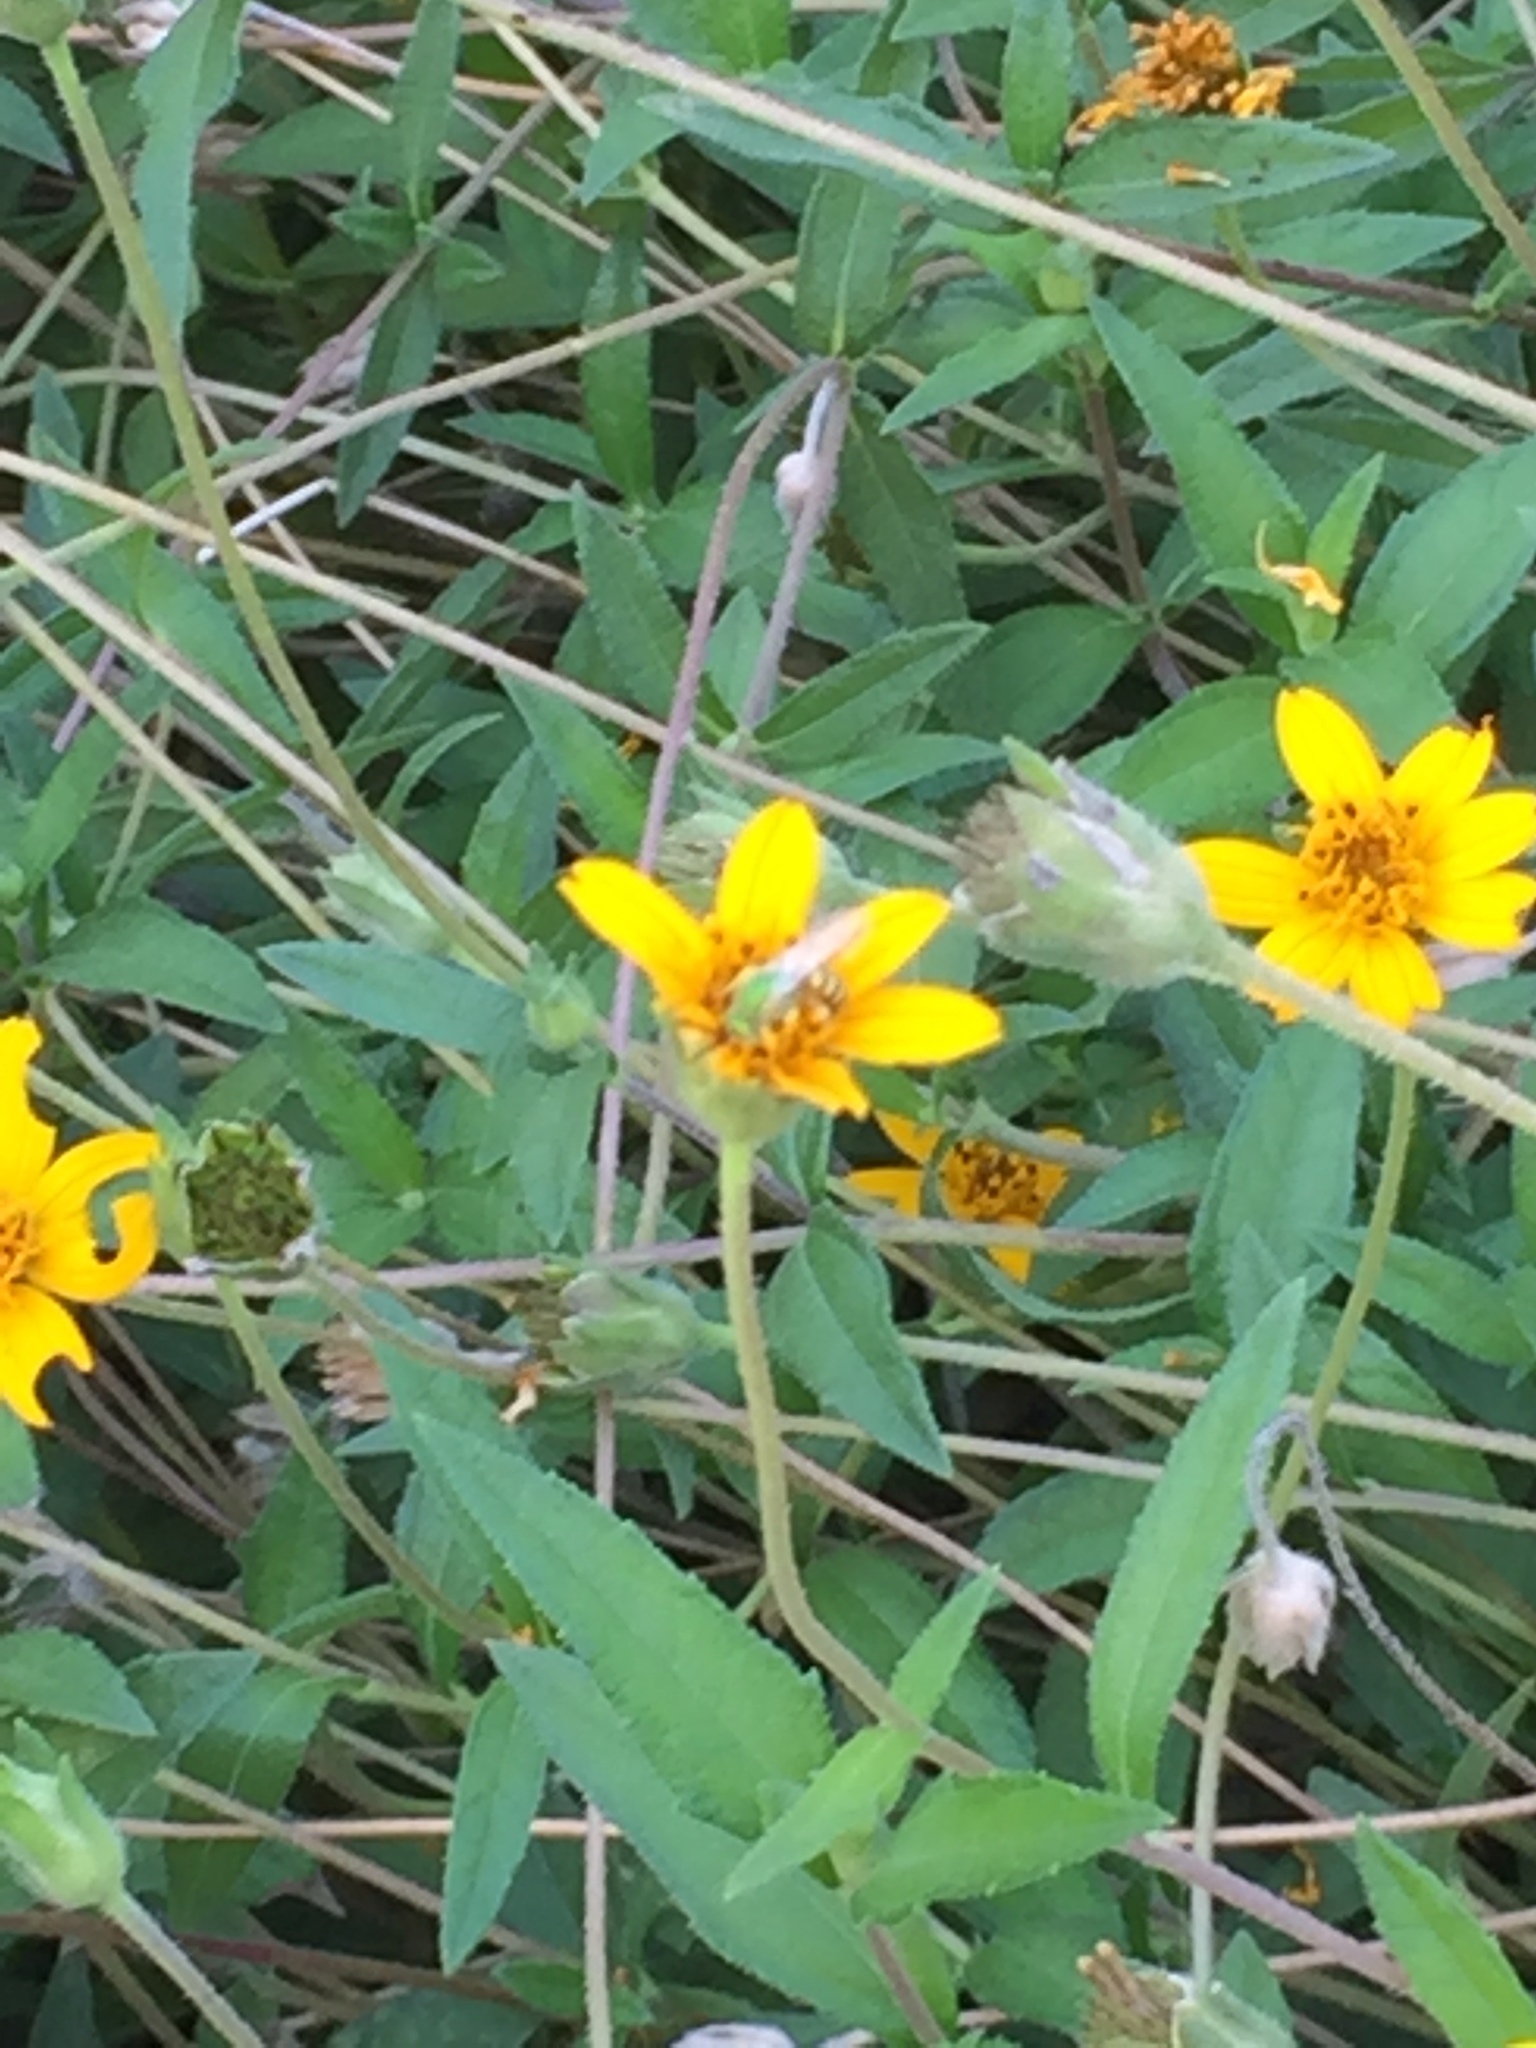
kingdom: Animalia
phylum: Arthropoda
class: Insecta
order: Hymenoptera
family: Halictidae
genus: Agapostemon
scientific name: Agapostemon
